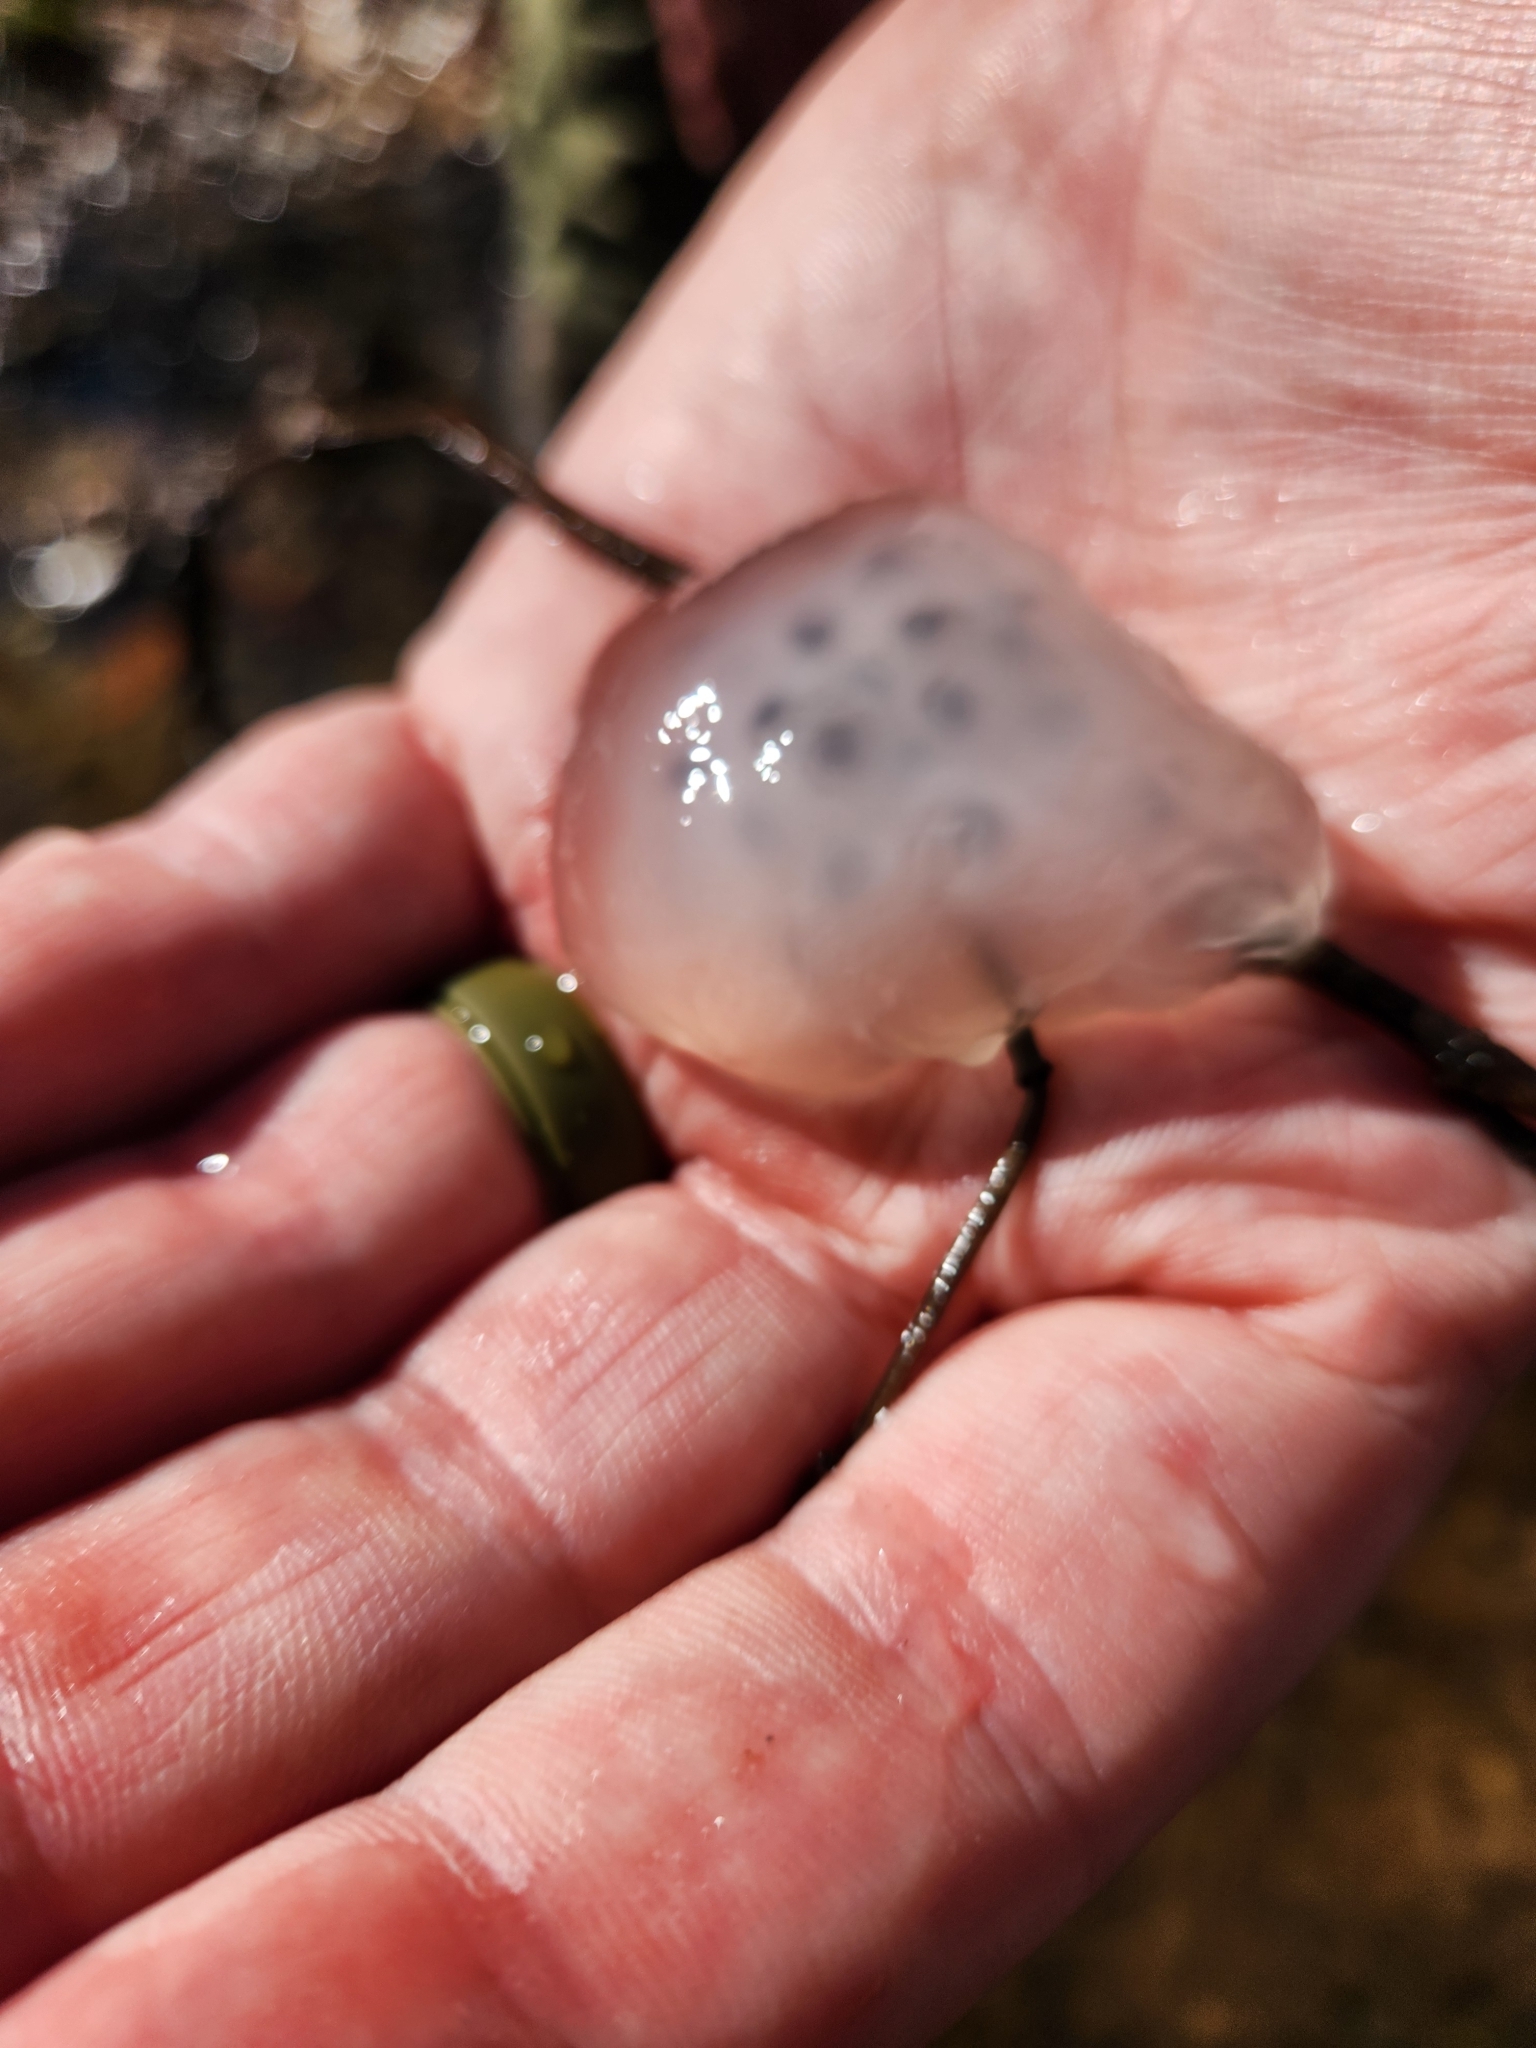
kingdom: Animalia
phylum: Chordata
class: Amphibia
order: Caudata
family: Ambystomatidae
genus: Ambystoma
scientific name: Ambystoma maculatum
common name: Spotted salamander
